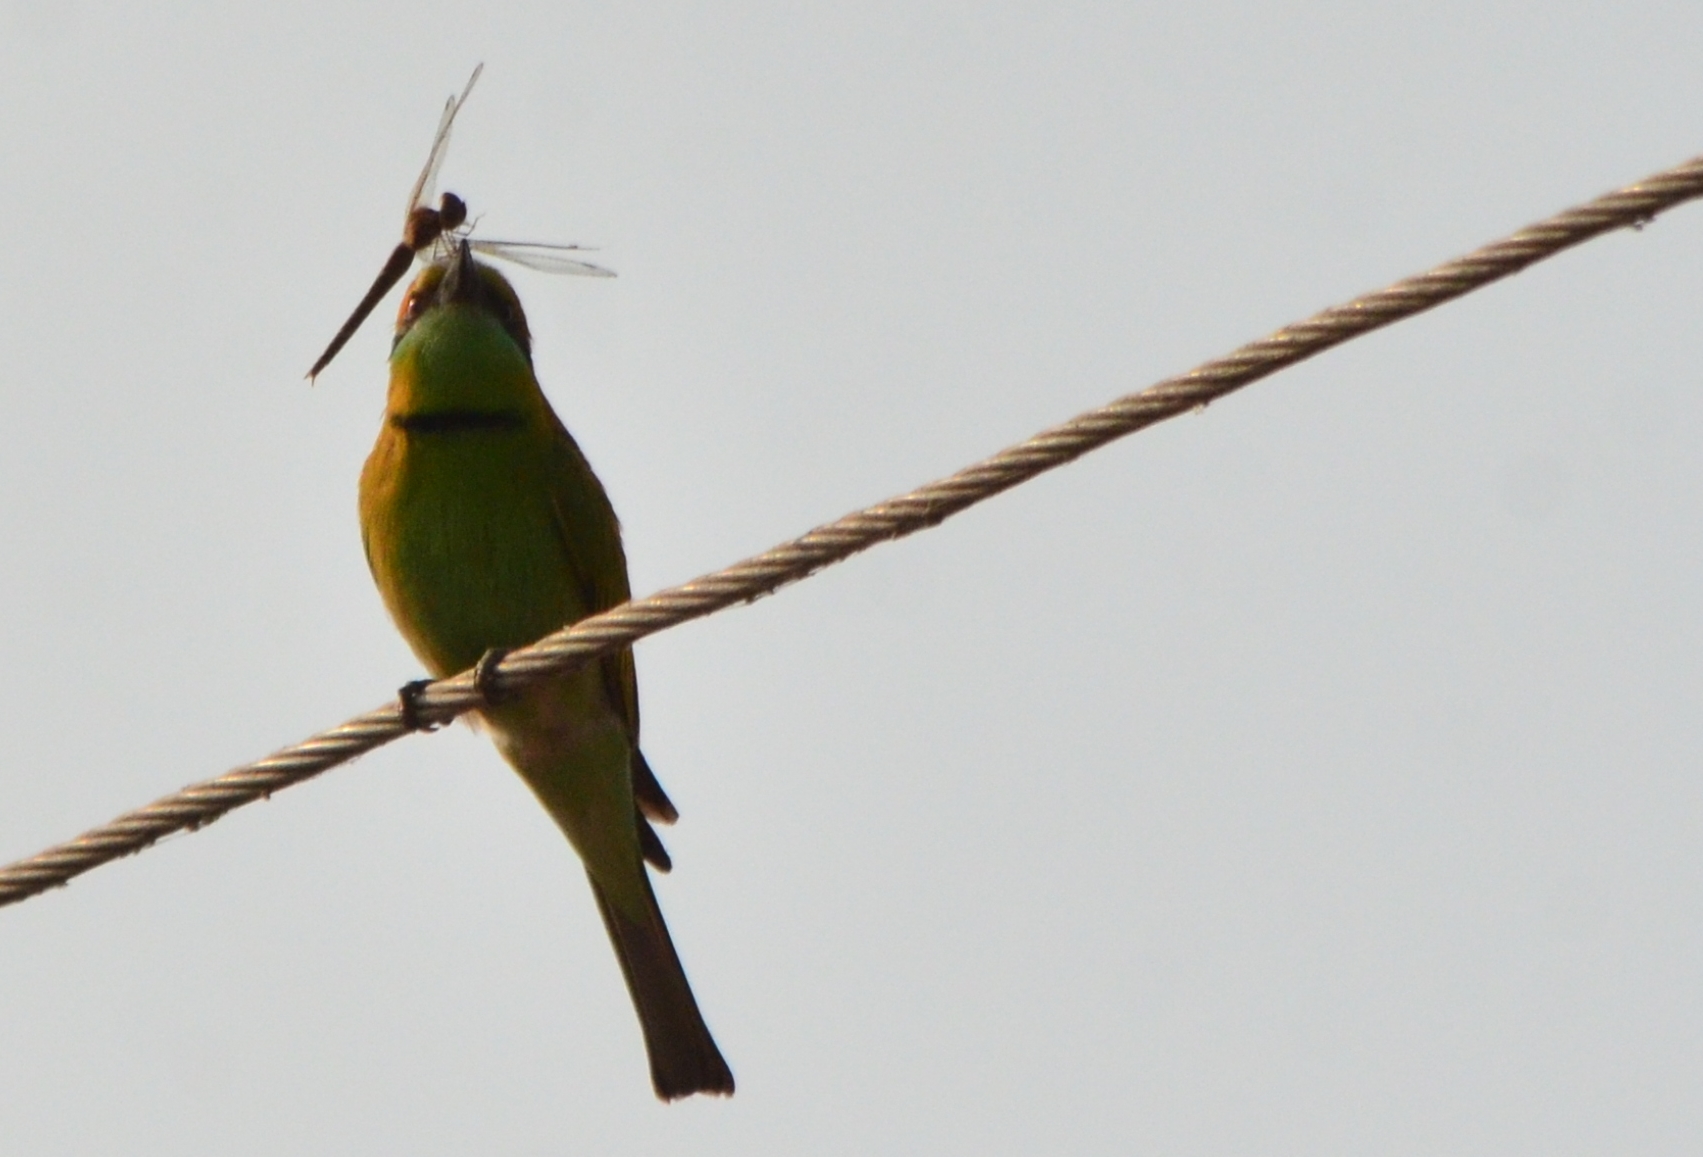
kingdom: Animalia
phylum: Chordata
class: Aves
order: Coraciiformes
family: Meropidae
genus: Merops
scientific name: Merops orientalis
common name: Green bee-eater
